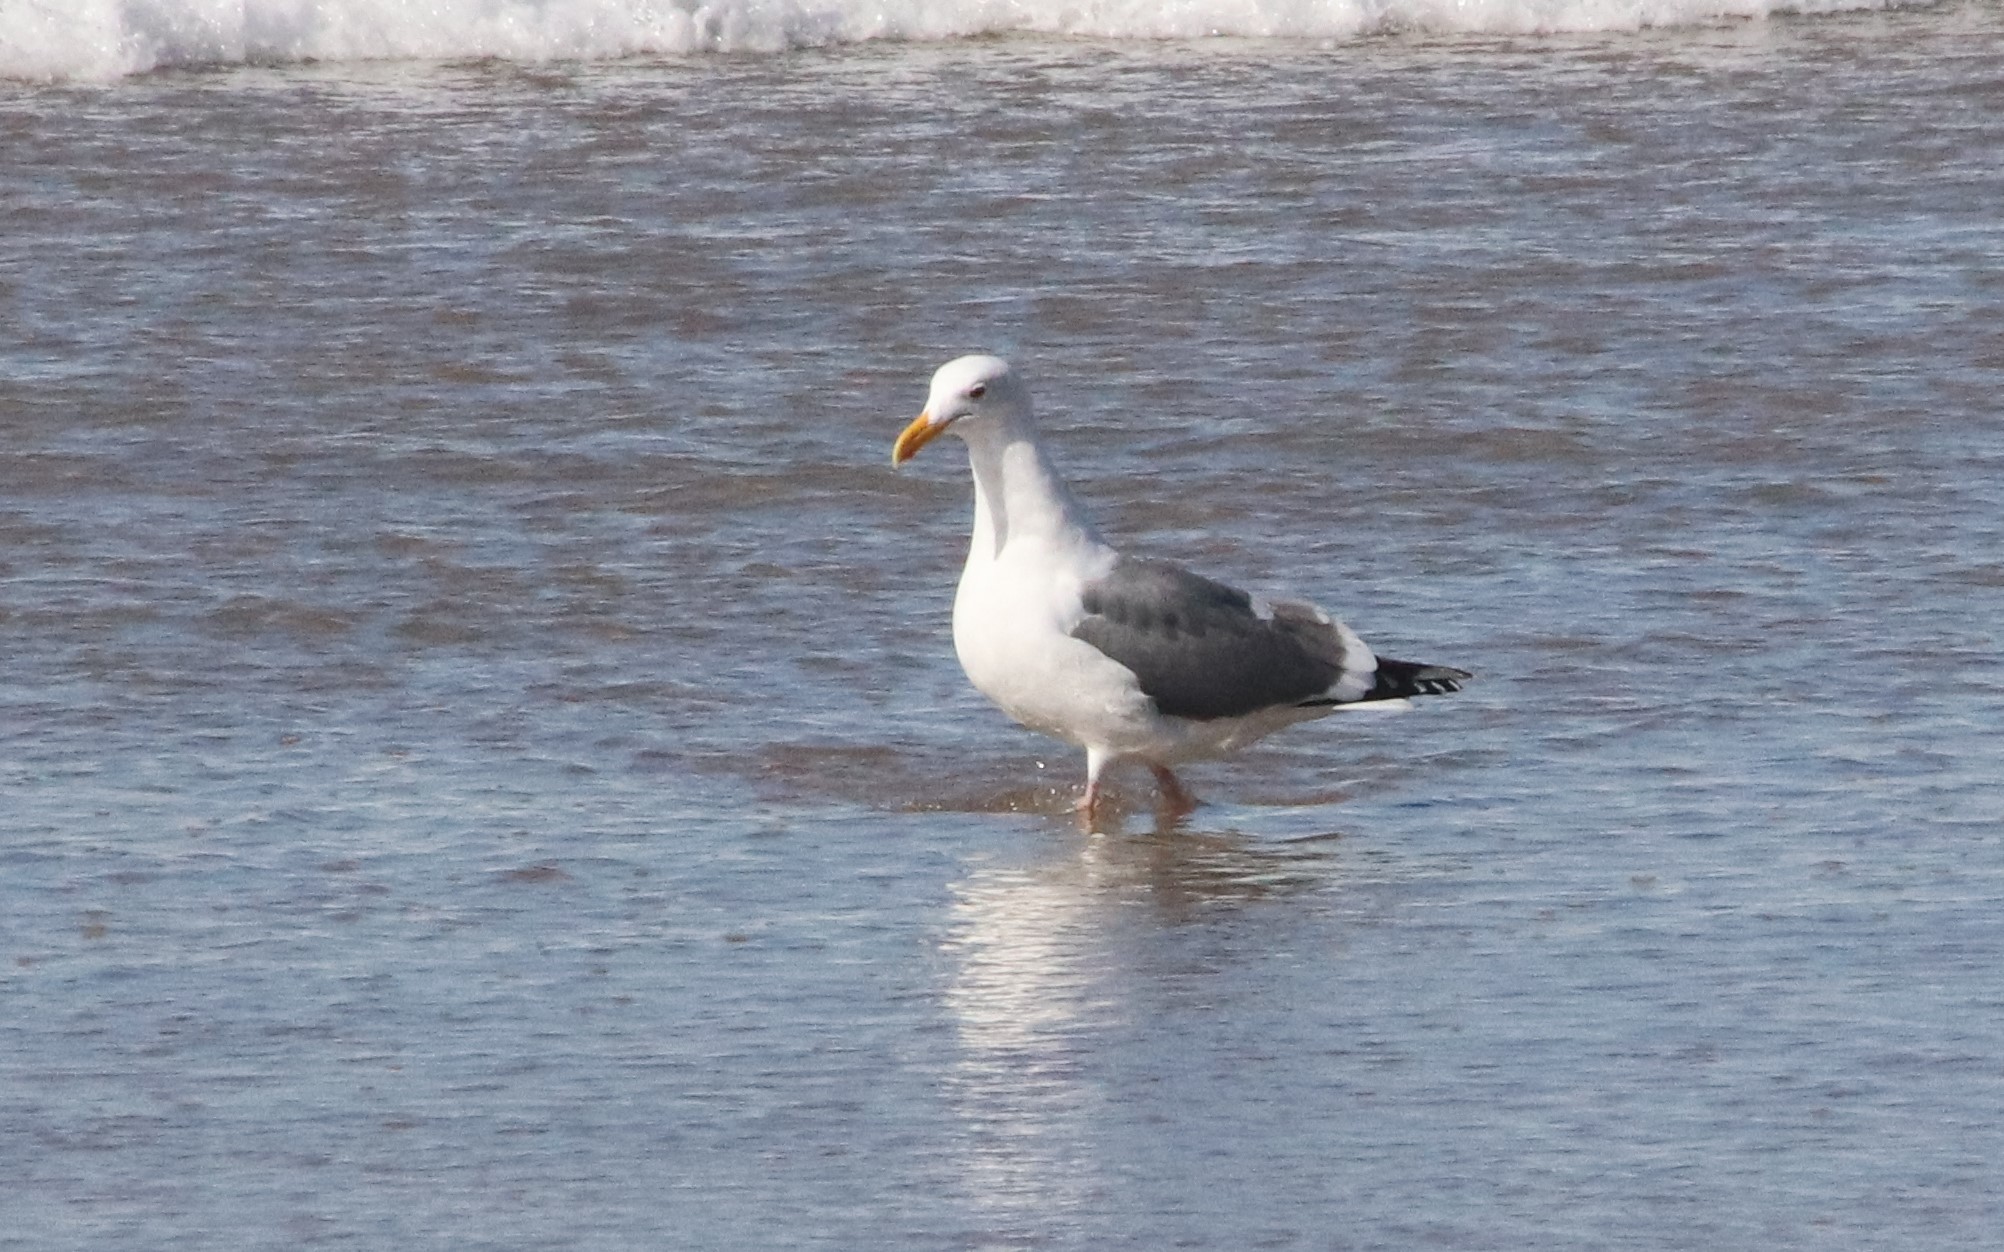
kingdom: Animalia
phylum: Chordata
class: Aves
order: Charadriiformes
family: Laridae
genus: Larus
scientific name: Larus occidentalis
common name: Western gull
